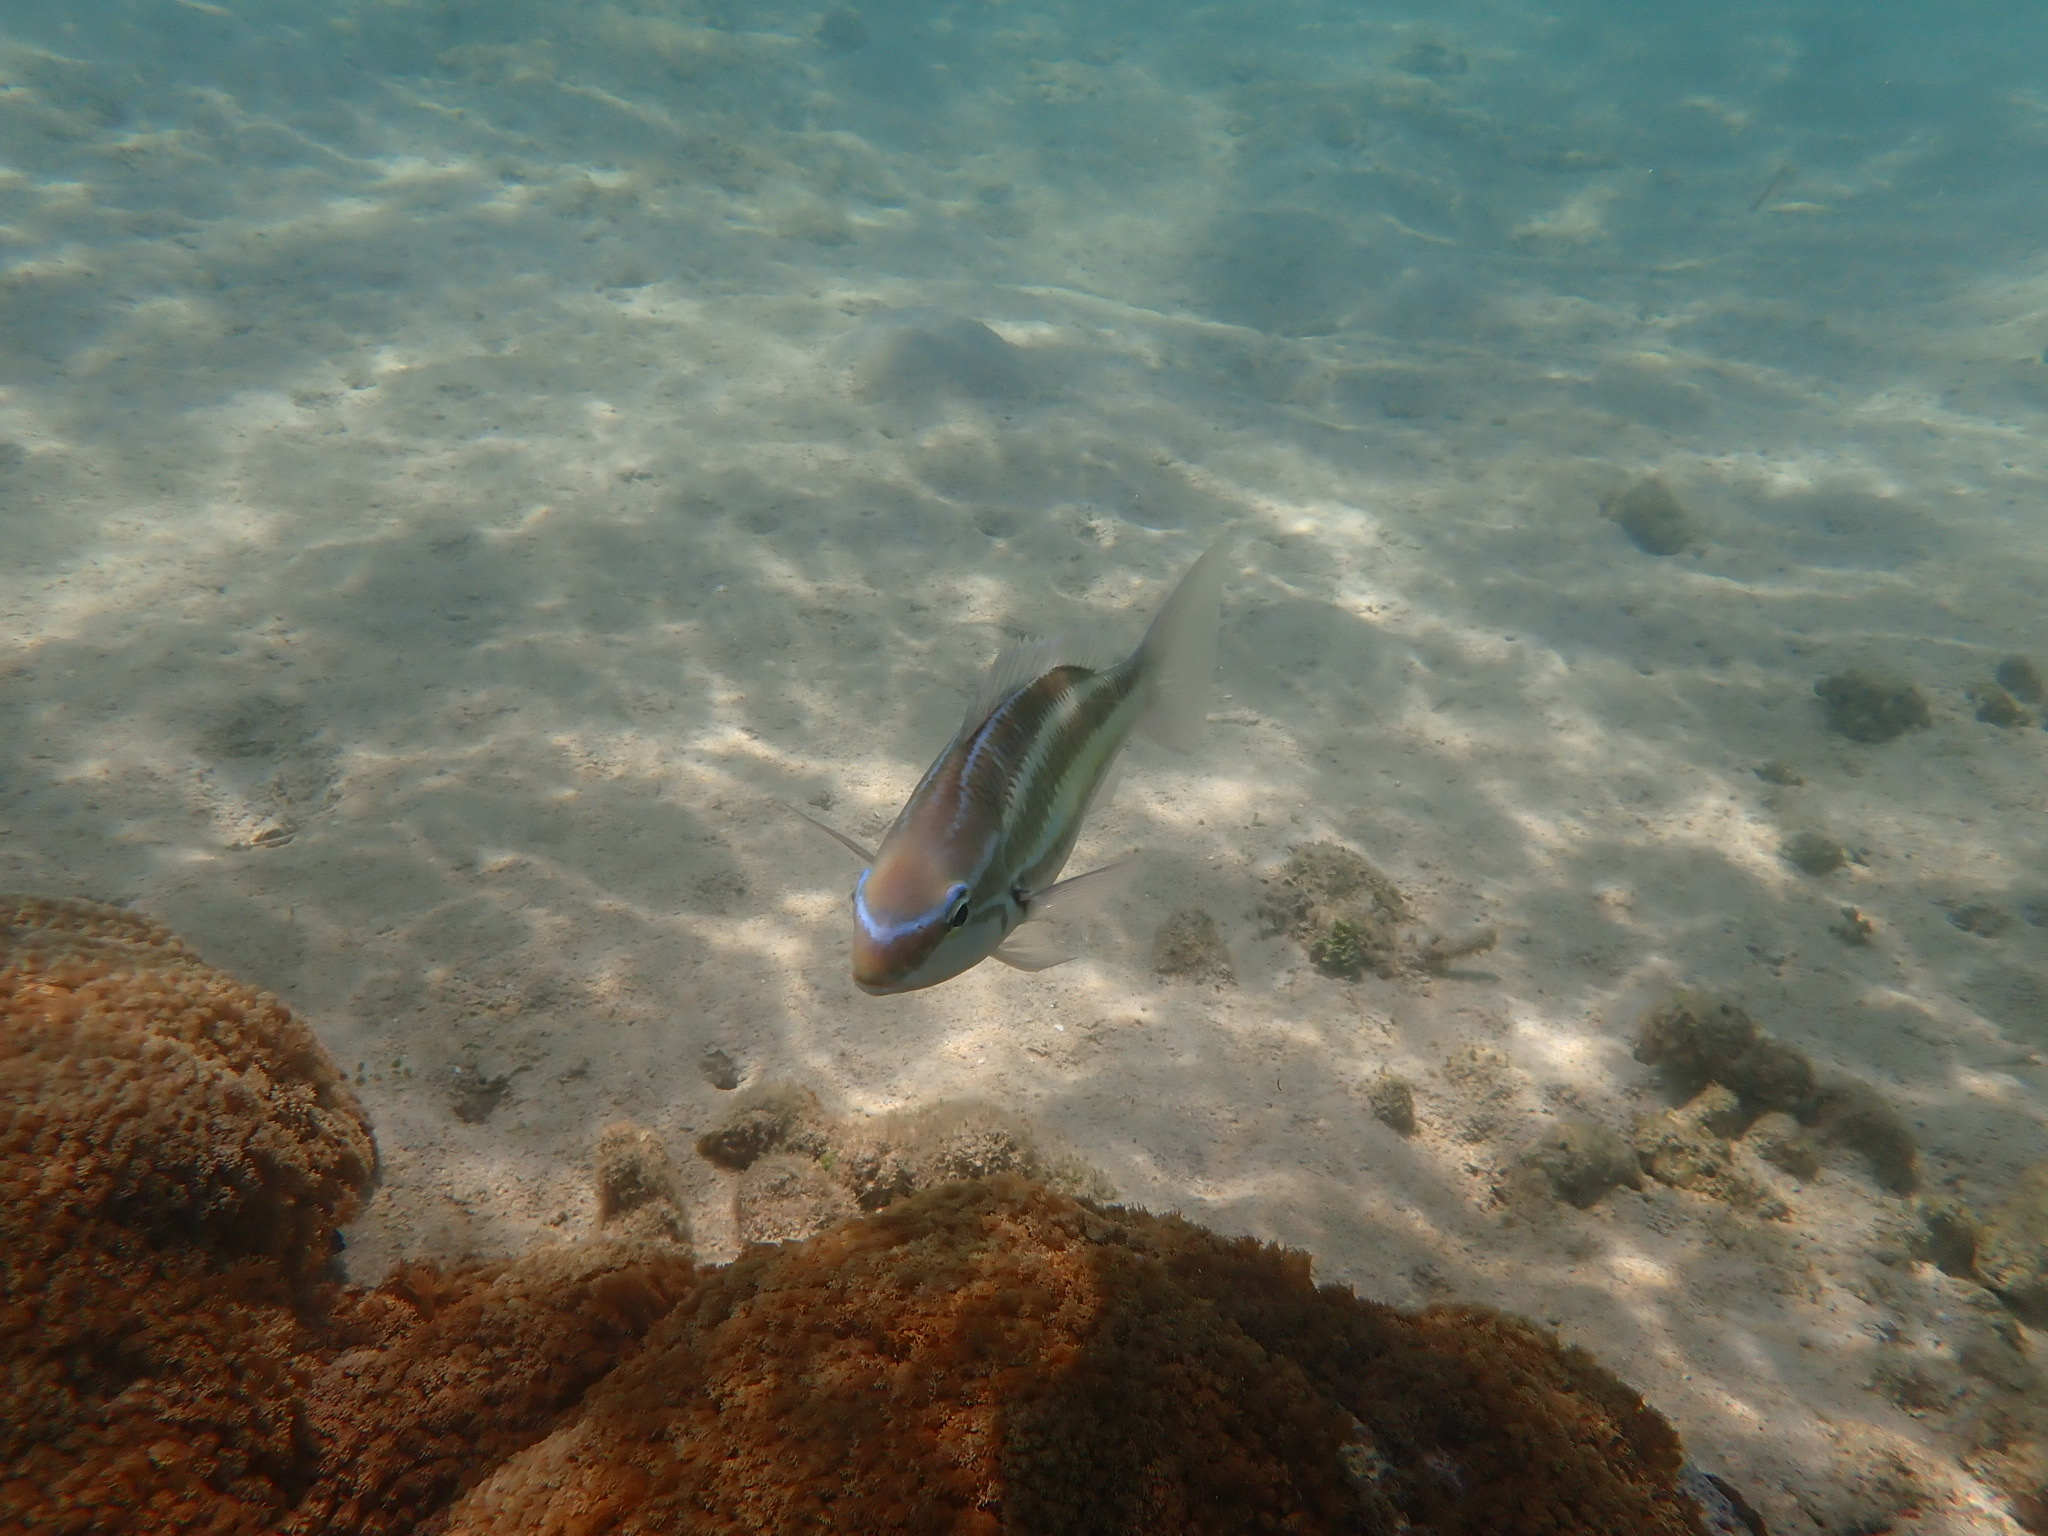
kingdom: Animalia
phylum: Chordata
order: Perciformes
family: Nemipteridae
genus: Pentapodus
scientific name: Pentapodus trivittatus
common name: Three-striped whiptail
